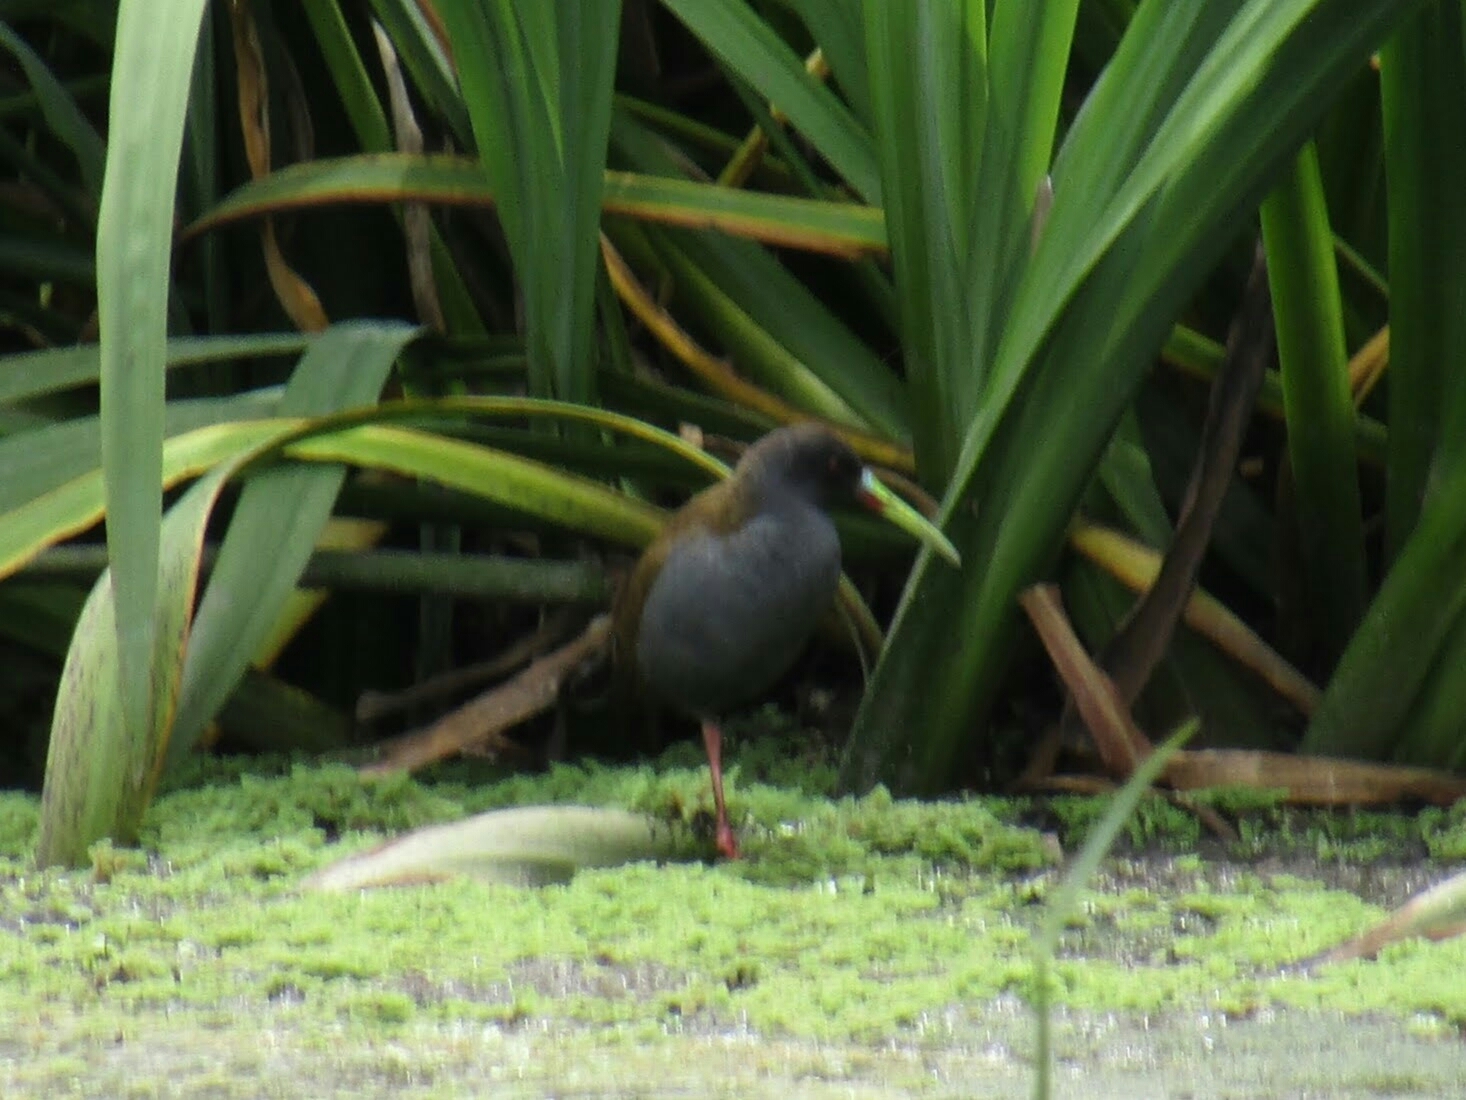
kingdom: Animalia
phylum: Chordata
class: Aves
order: Gruiformes
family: Rallidae
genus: Pardirallus
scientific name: Pardirallus sanguinolentus
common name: Plumbeous rail
